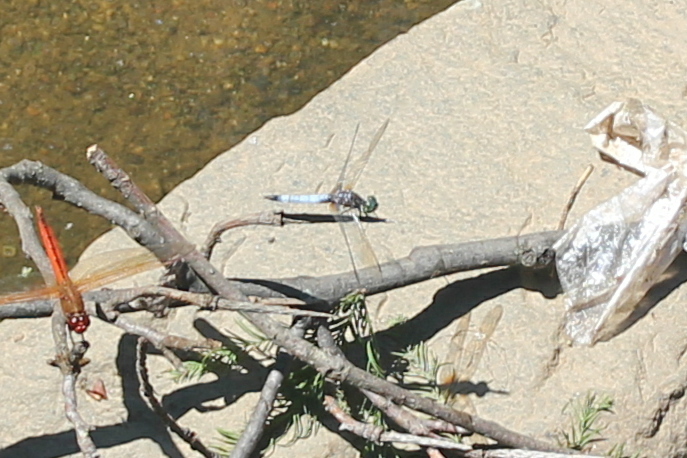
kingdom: Animalia
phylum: Arthropoda
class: Insecta
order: Odonata
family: Libellulidae
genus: Pachydiplax
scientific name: Pachydiplax longipennis
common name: Blue dasher
